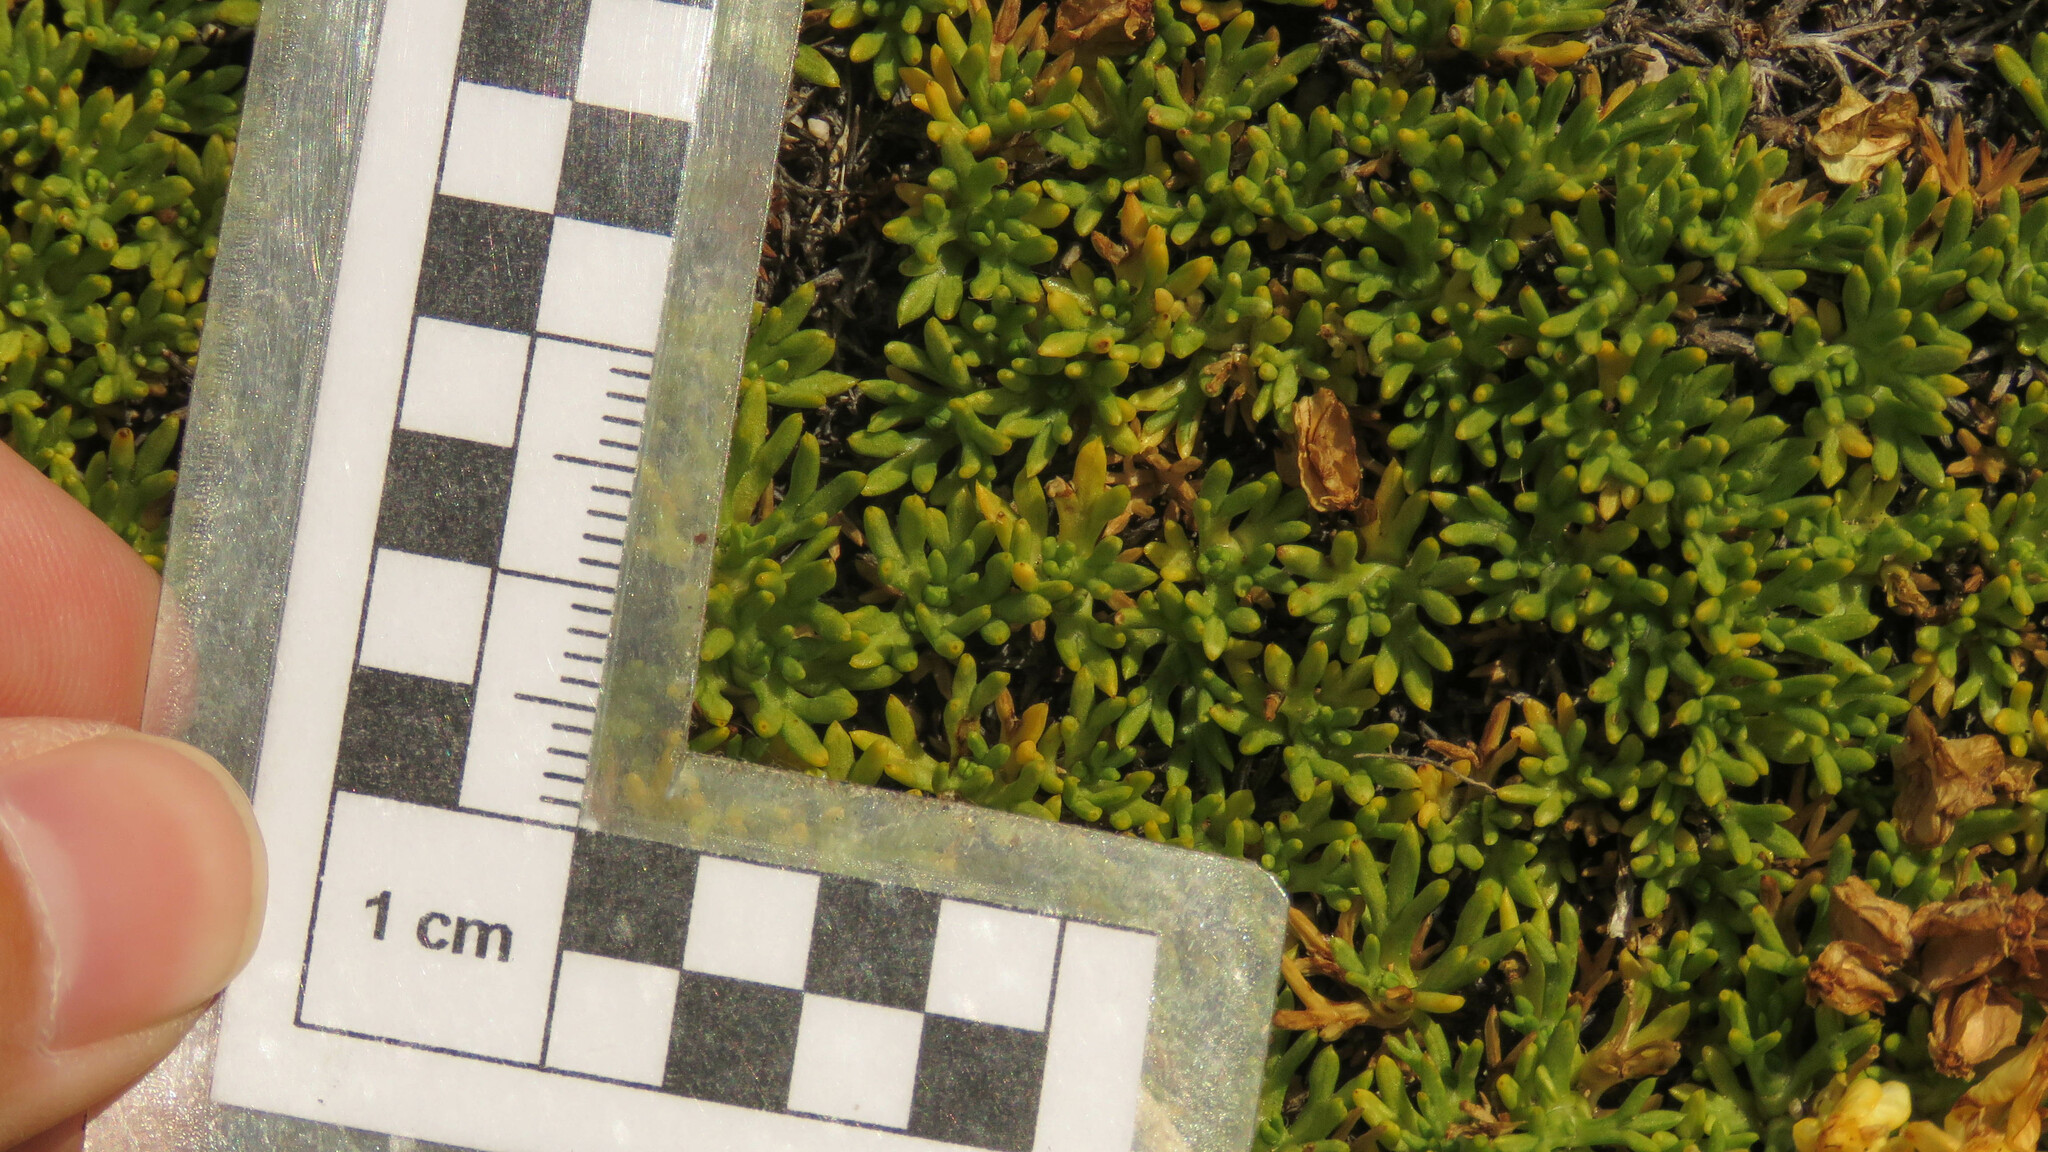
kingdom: Plantae
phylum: Tracheophyta
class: Magnoliopsida
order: Apiales
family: Apiaceae
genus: Azorella
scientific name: Azorella trifurcata
